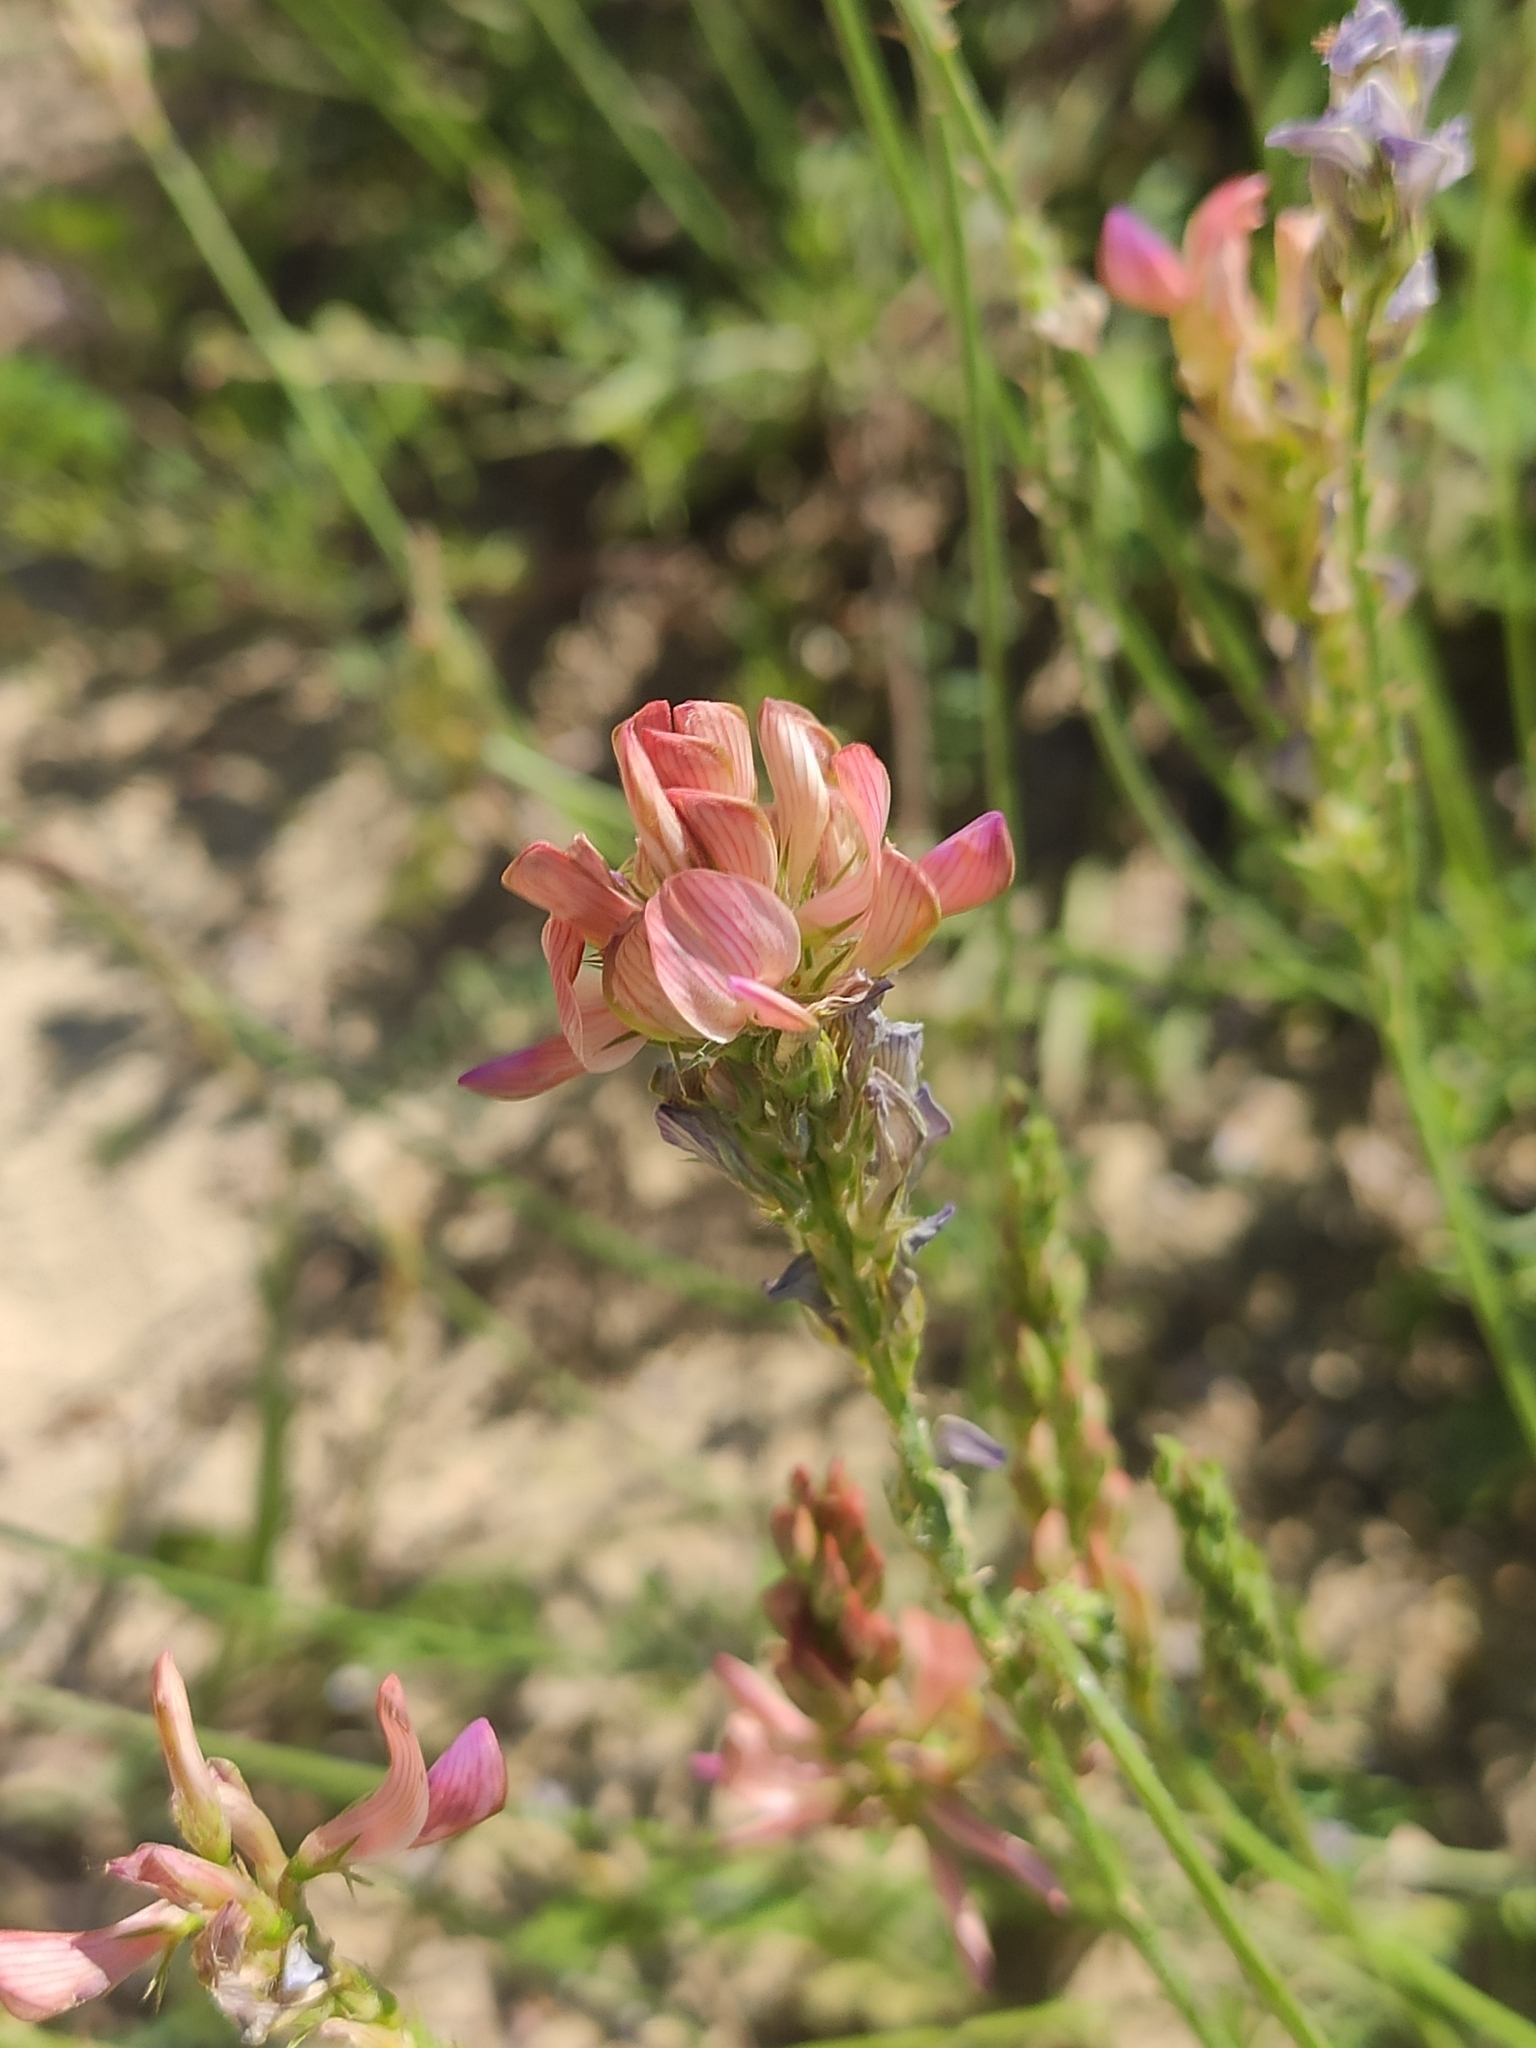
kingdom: Plantae
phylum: Tracheophyta
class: Magnoliopsida
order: Fabales
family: Fabaceae
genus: Onobrychis
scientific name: Onobrychis viciifolia
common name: Sainfoin
